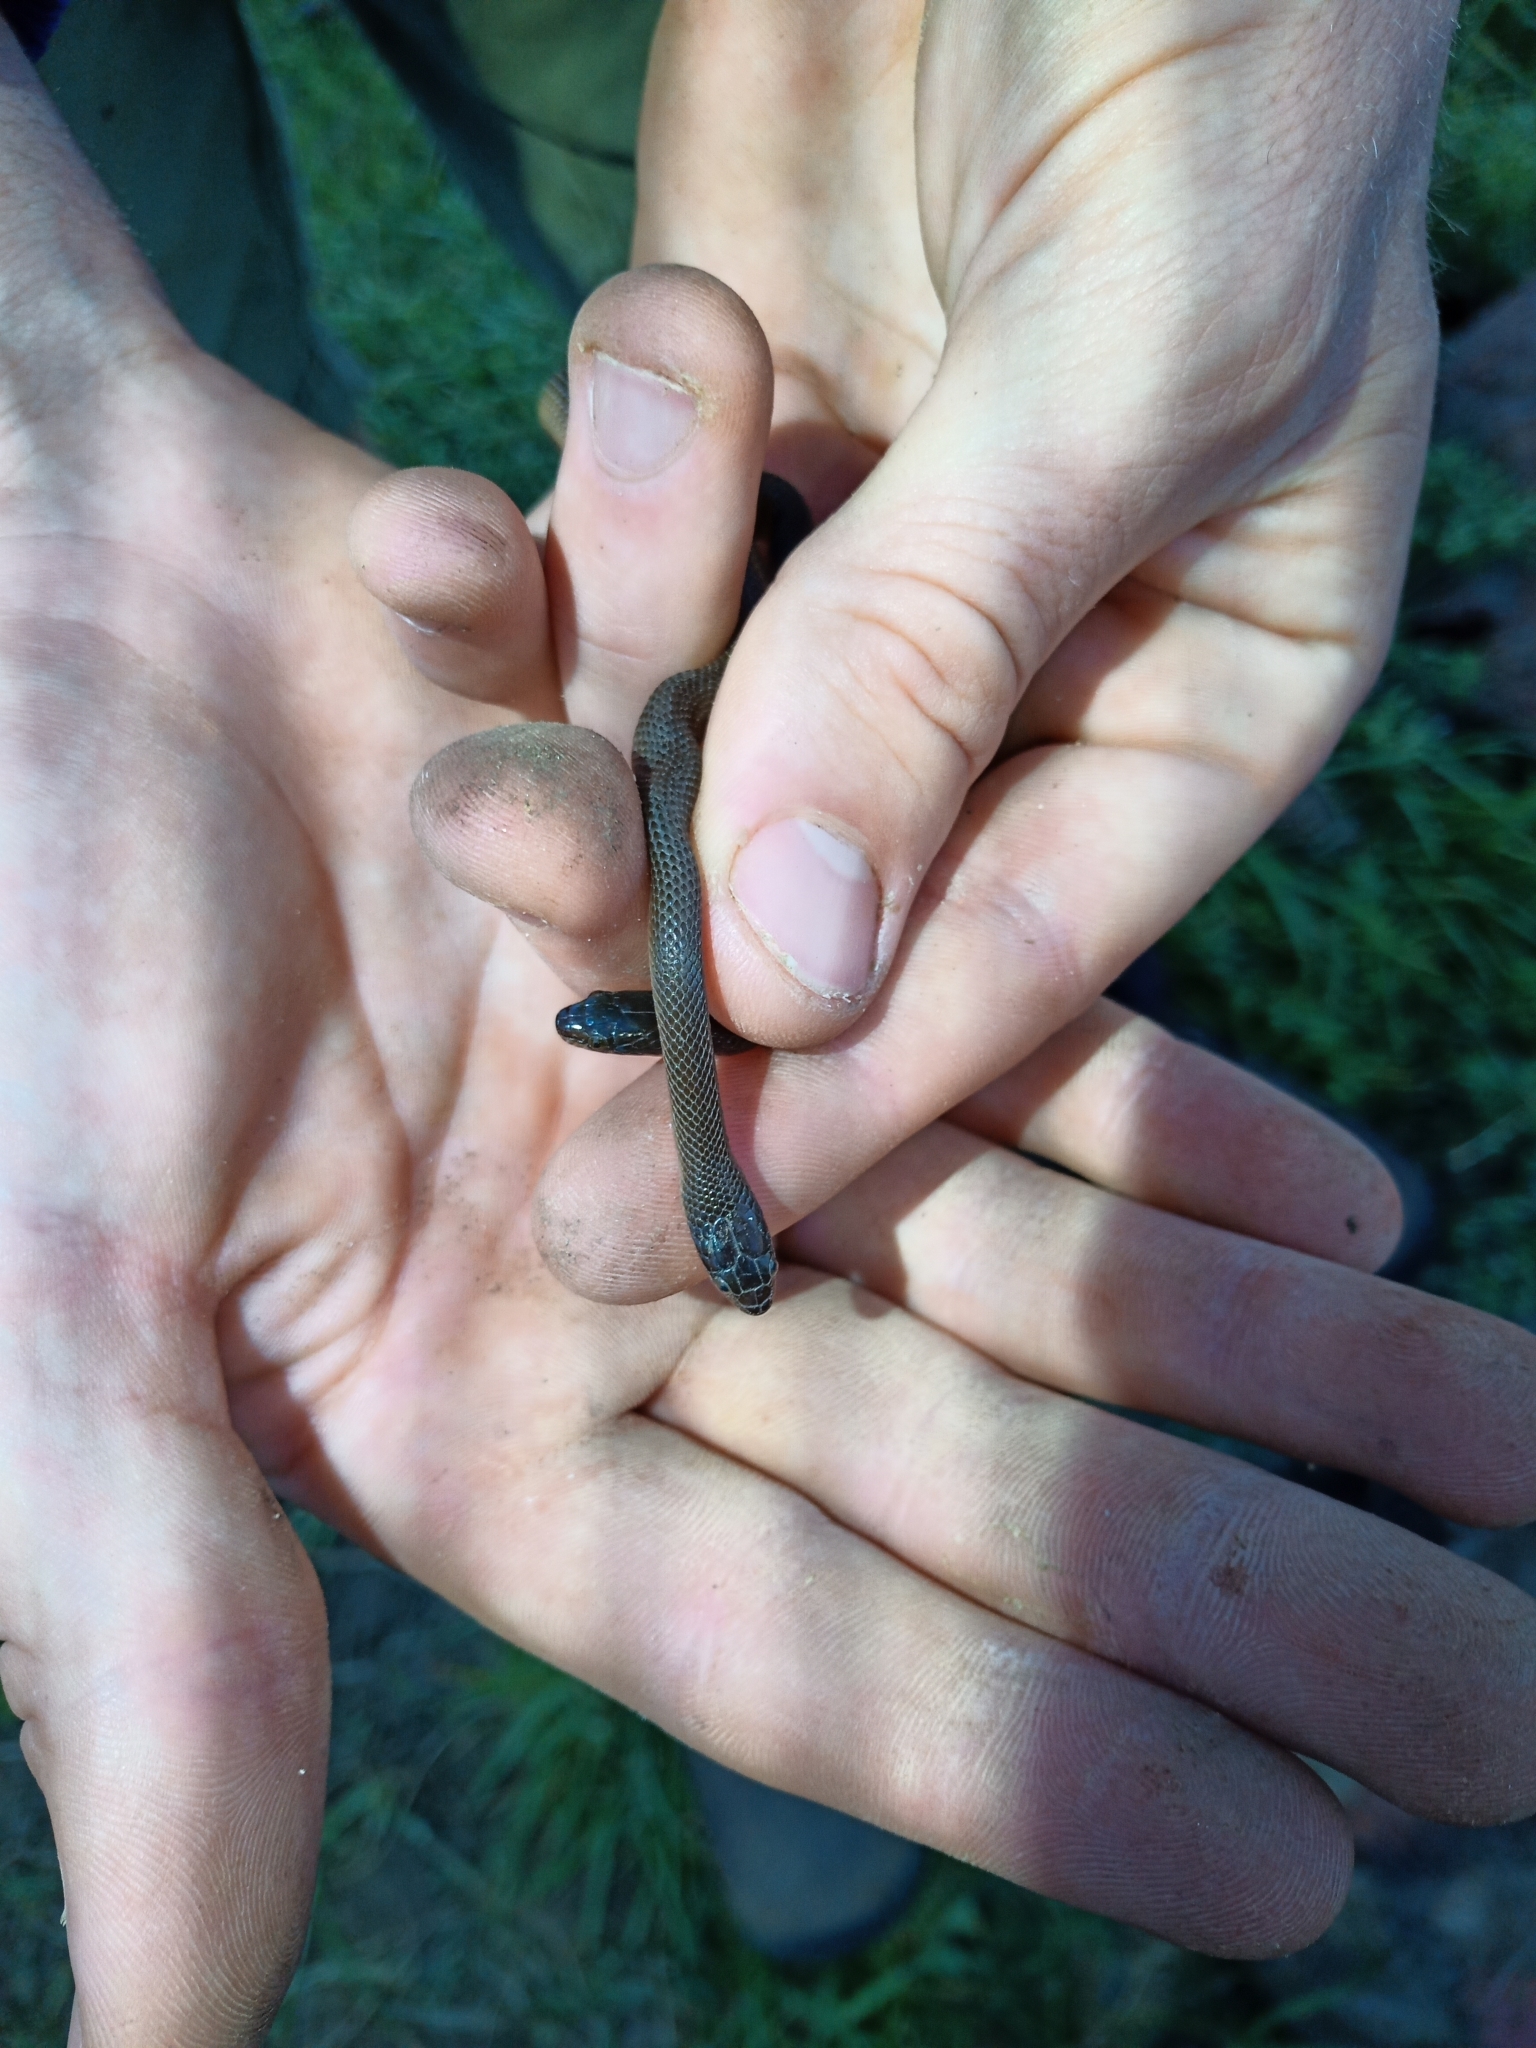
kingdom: Animalia
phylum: Chordata
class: Squamata
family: Lamprophiidae
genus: Lycodonomorphus
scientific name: Lycodonomorphus rufulus
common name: Brown water snake
